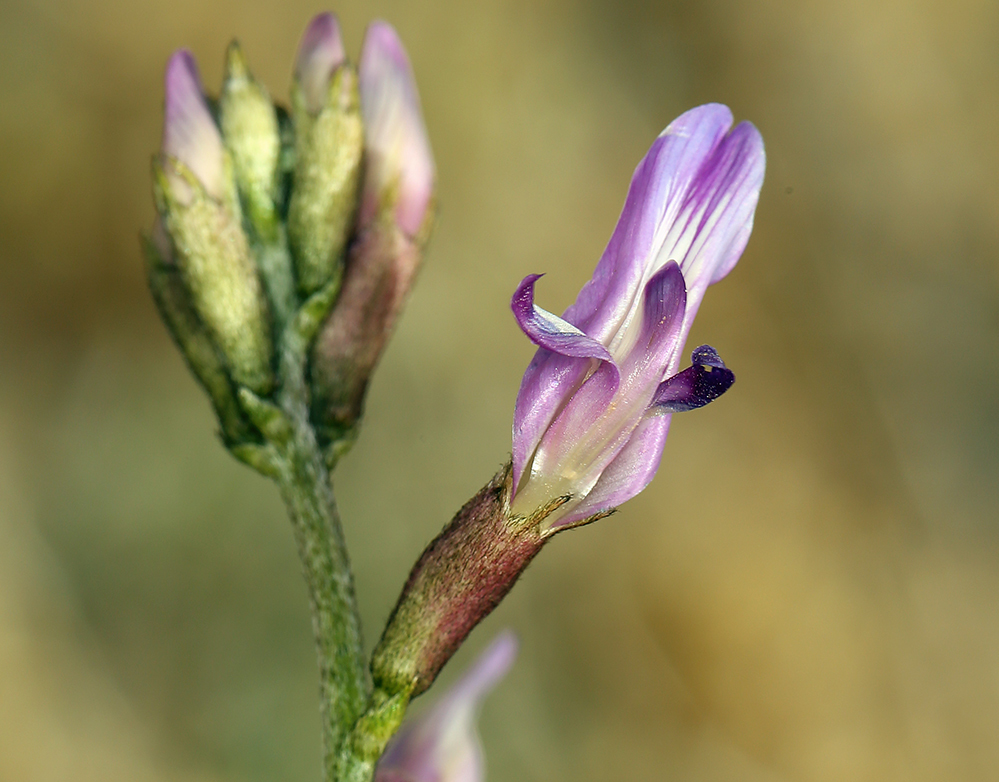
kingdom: Plantae
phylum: Tracheophyta
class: Magnoliopsida
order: Fabales
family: Fabaceae
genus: Astragalus
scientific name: Astragalus serenoi
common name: Naked milk-vetch
